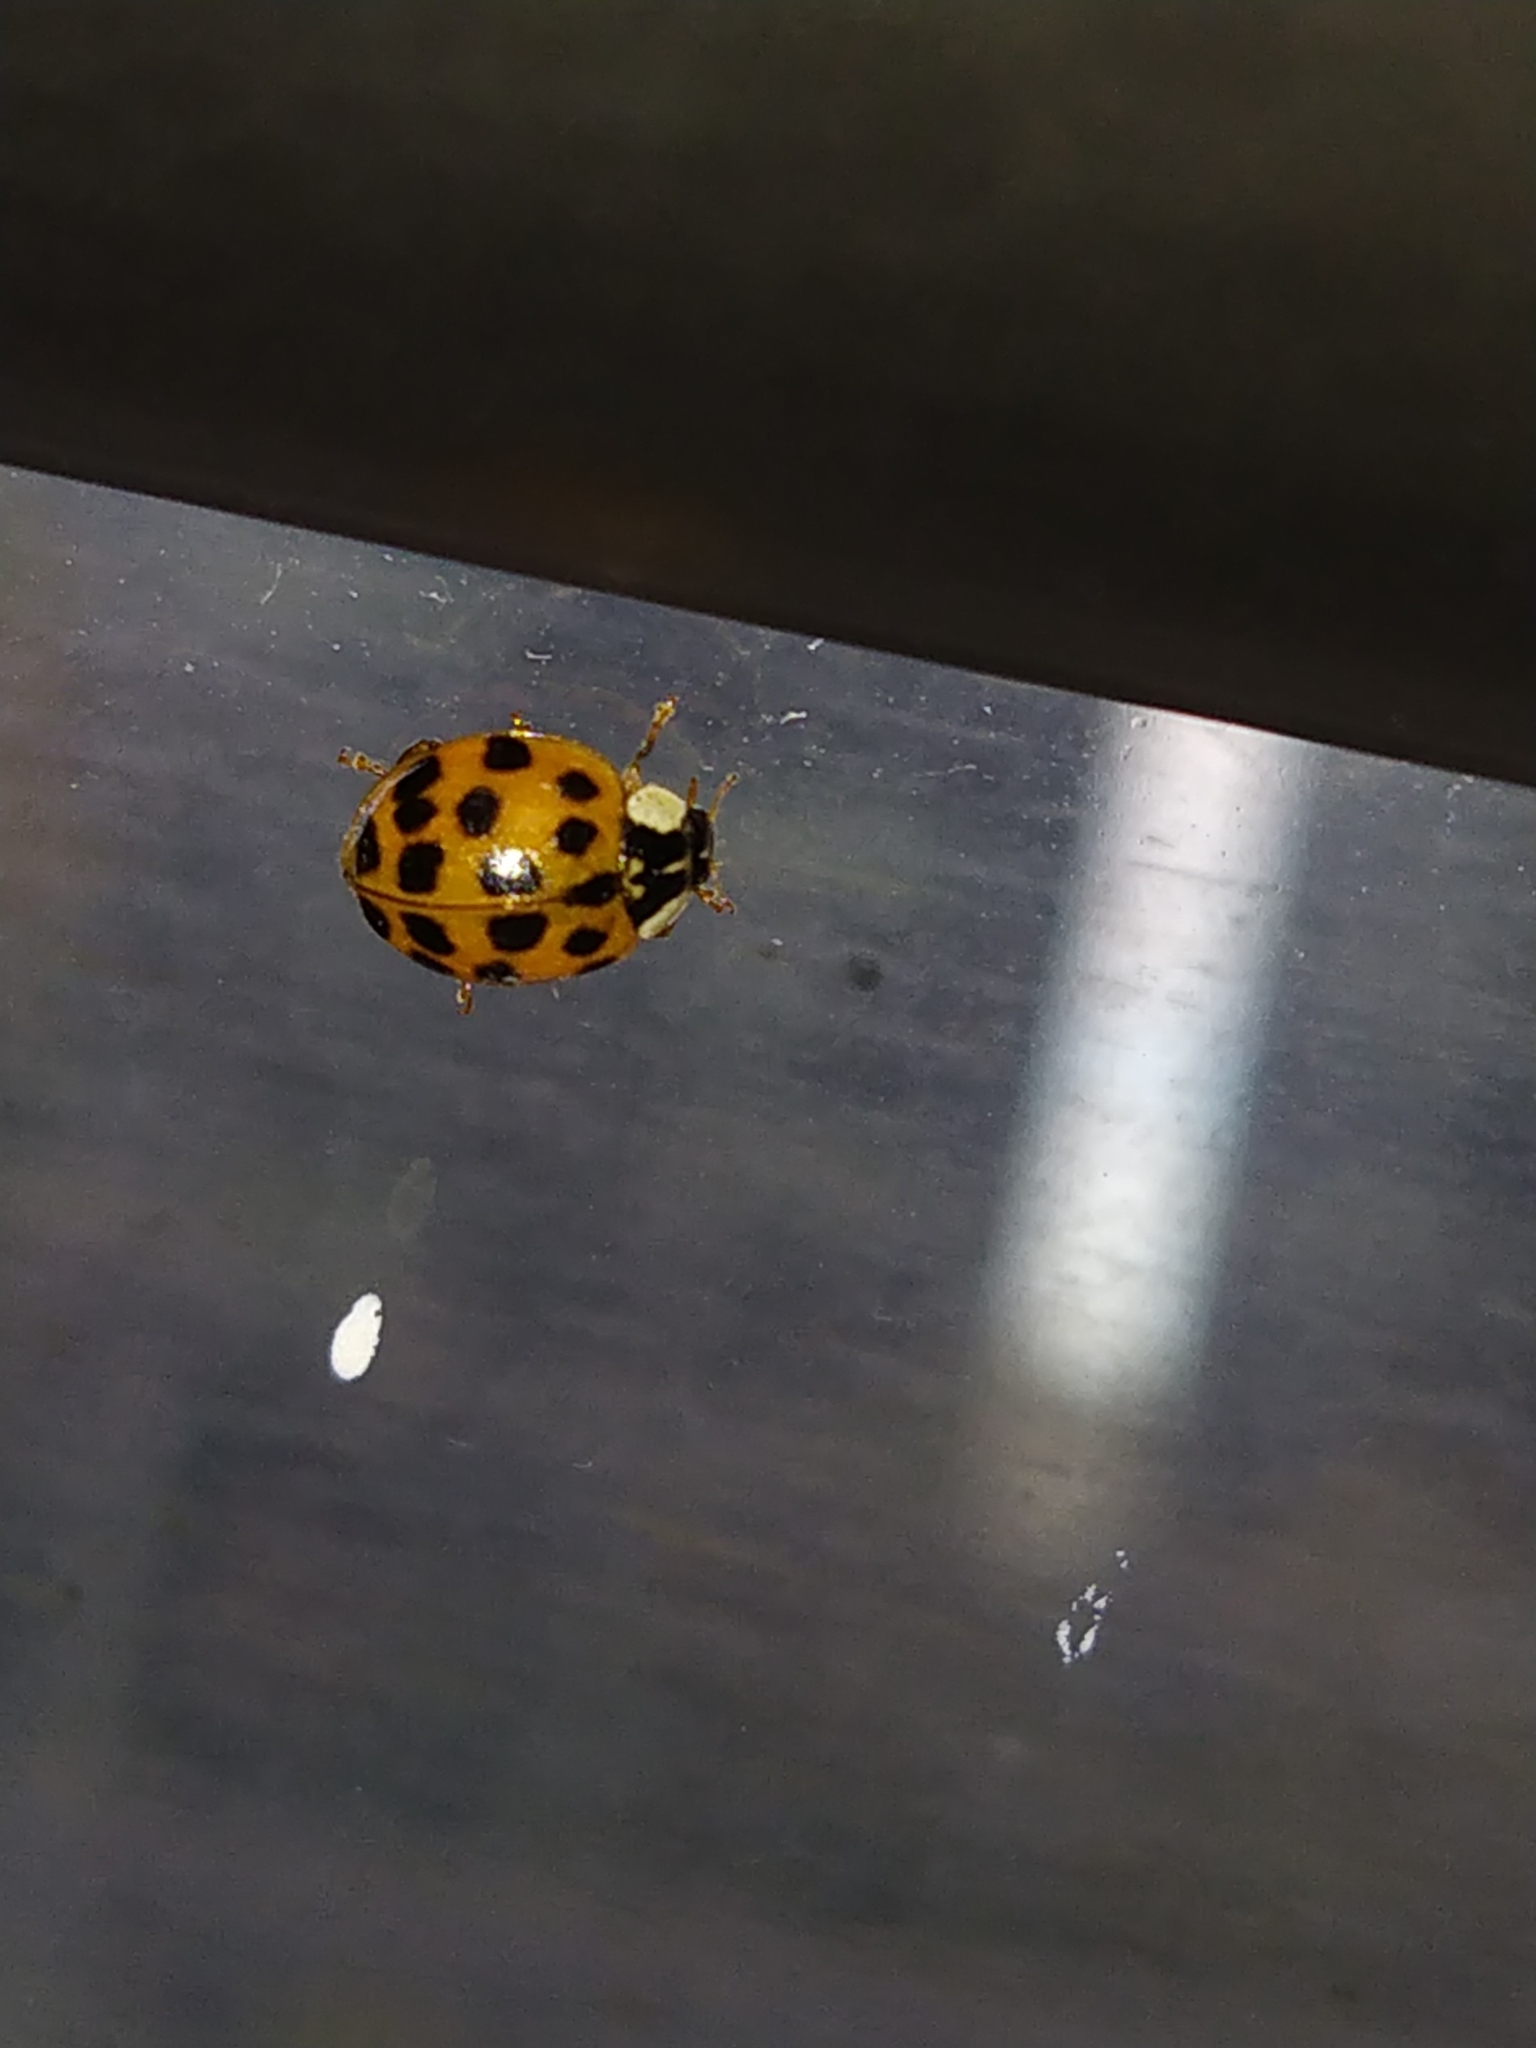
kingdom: Animalia
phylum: Arthropoda
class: Insecta
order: Coleoptera
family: Coccinellidae
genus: Harmonia
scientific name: Harmonia axyridis
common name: Harlequin ladybird
